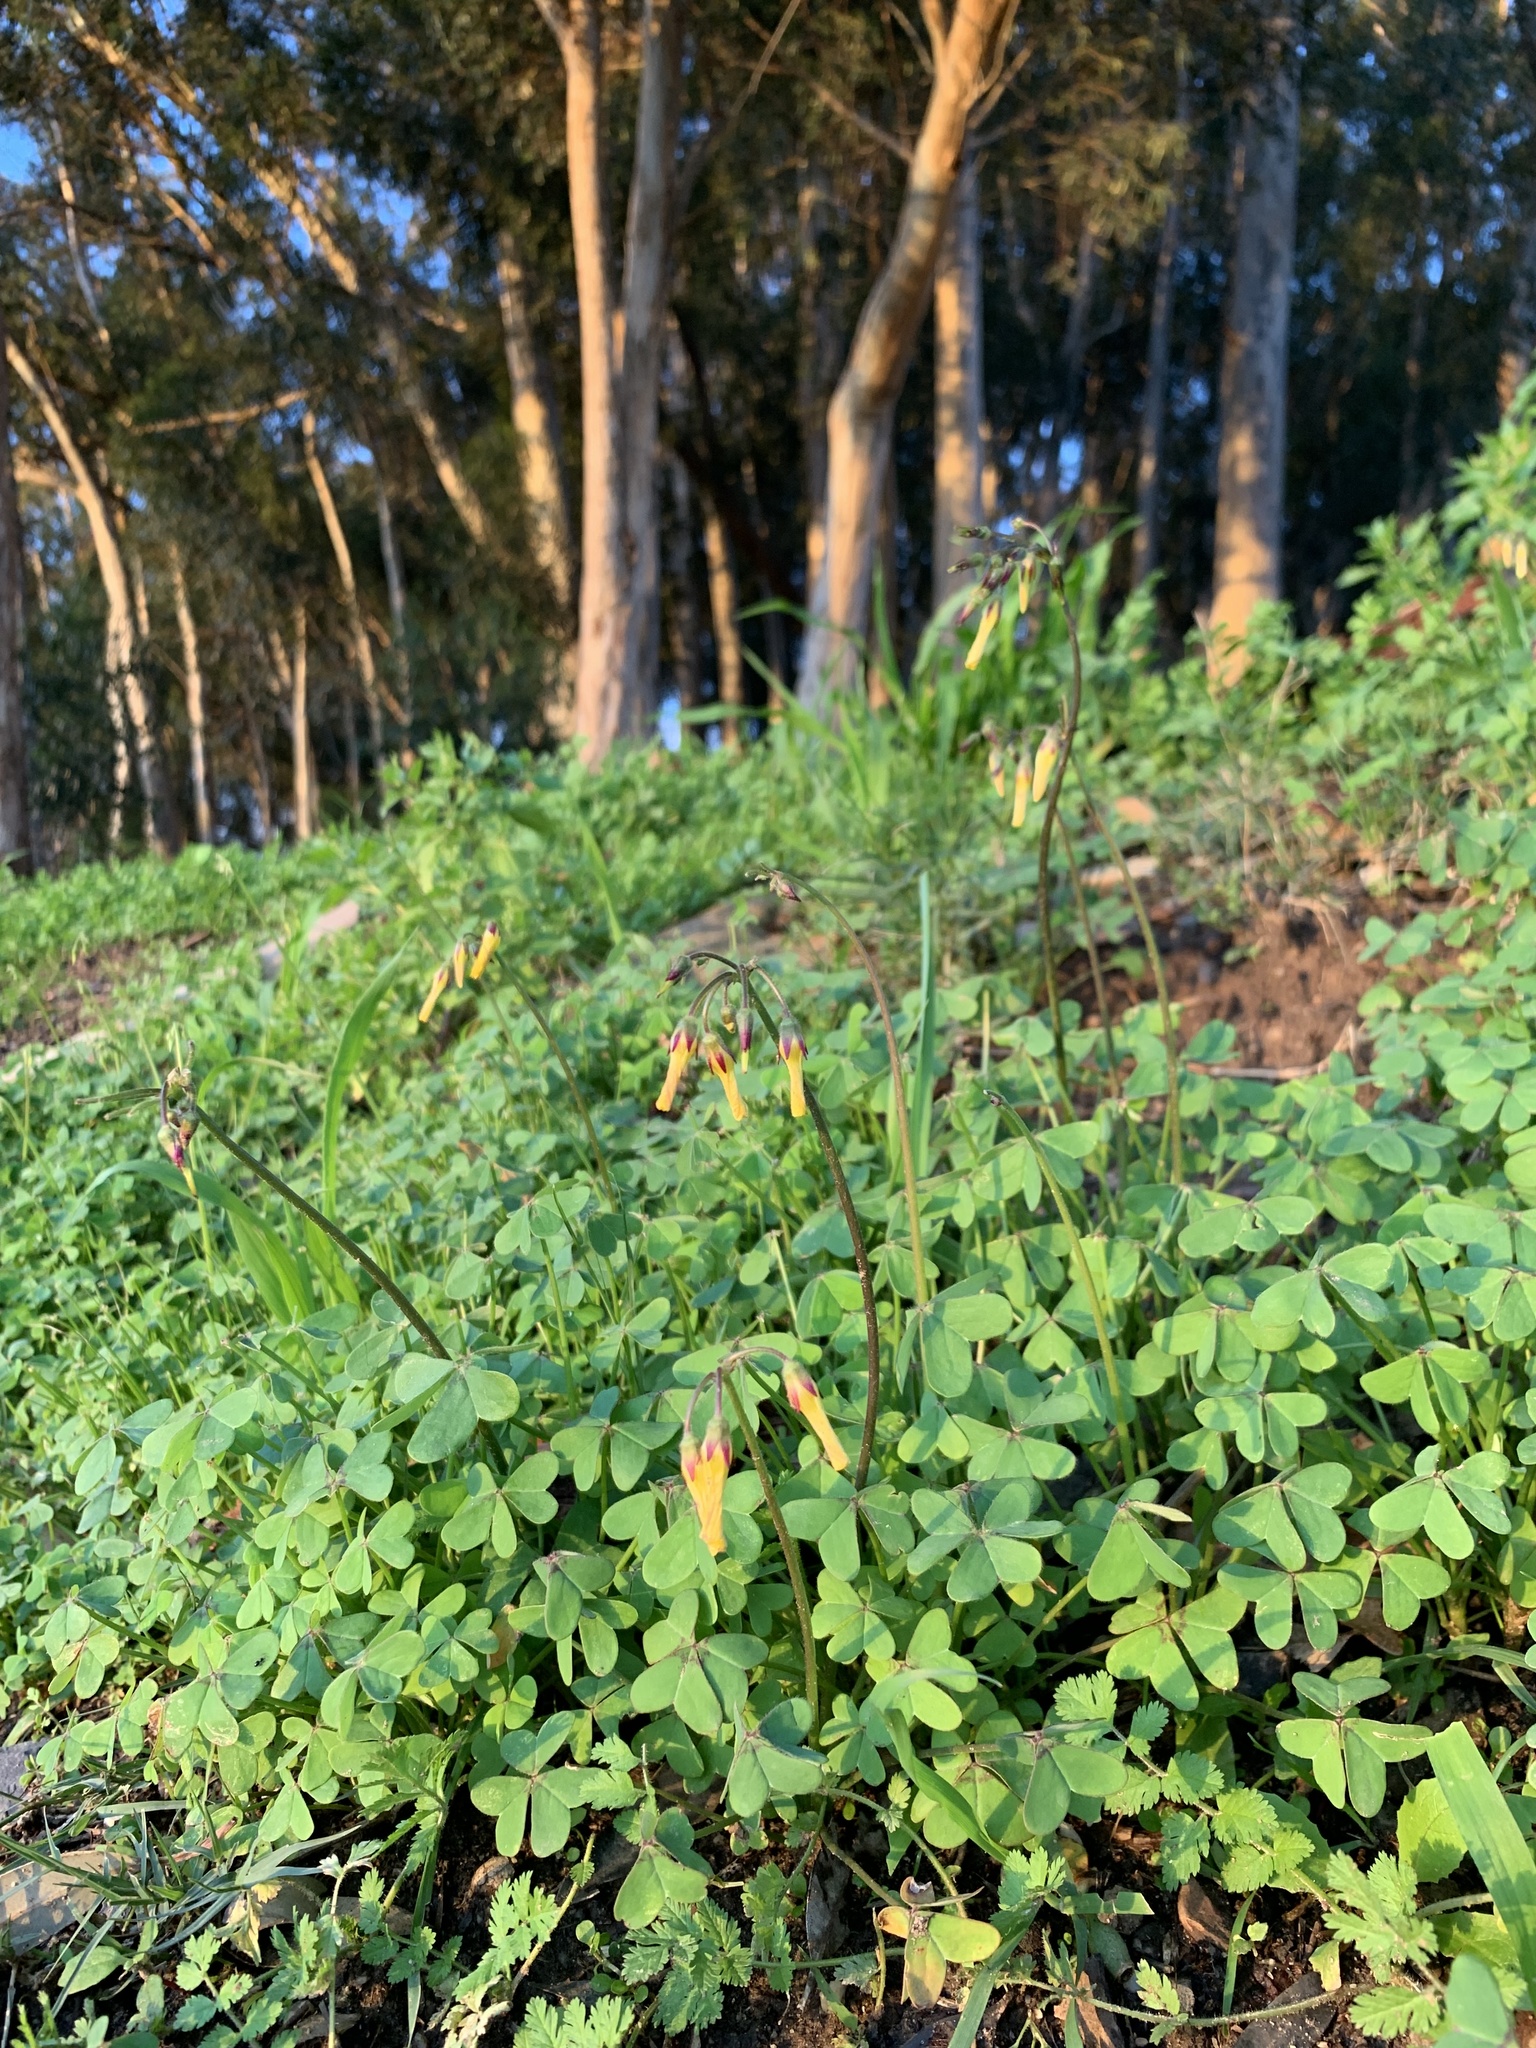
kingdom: Plantae
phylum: Tracheophyta
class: Magnoliopsida
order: Oxalidales
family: Oxalidaceae
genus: Oxalis
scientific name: Oxalis pes-caprae
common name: Bermuda-buttercup
